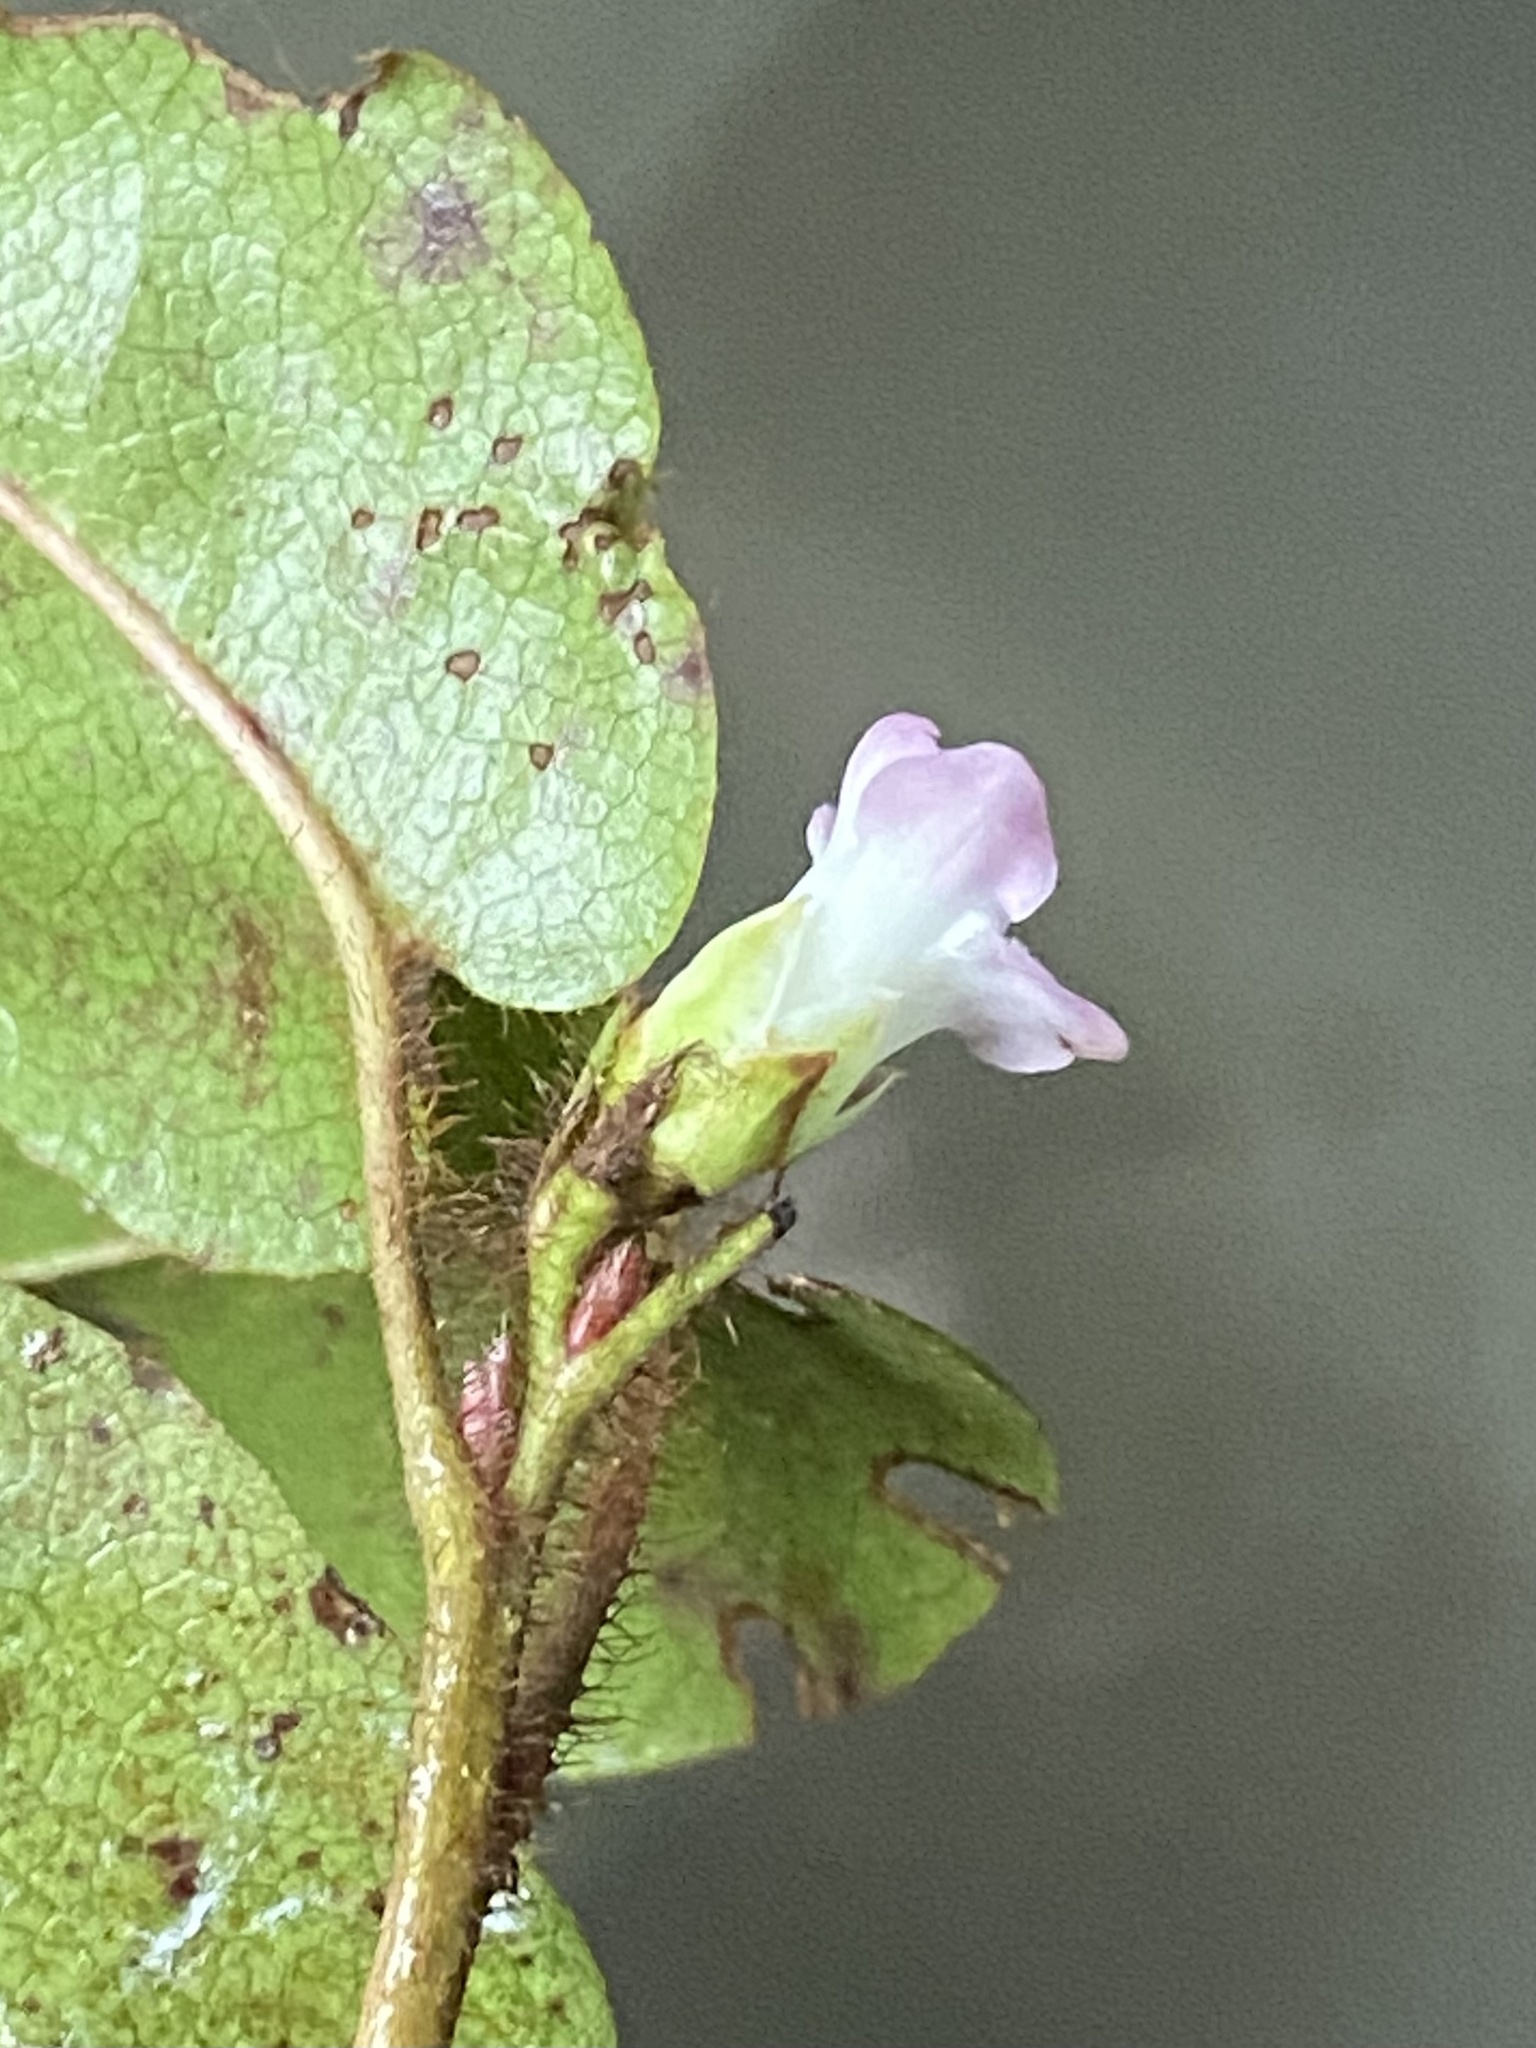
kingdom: Plantae
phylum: Tracheophyta
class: Magnoliopsida
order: Ericales
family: Ericaceae
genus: Epigaea
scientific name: Epigaea repens
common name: Gravelroot
